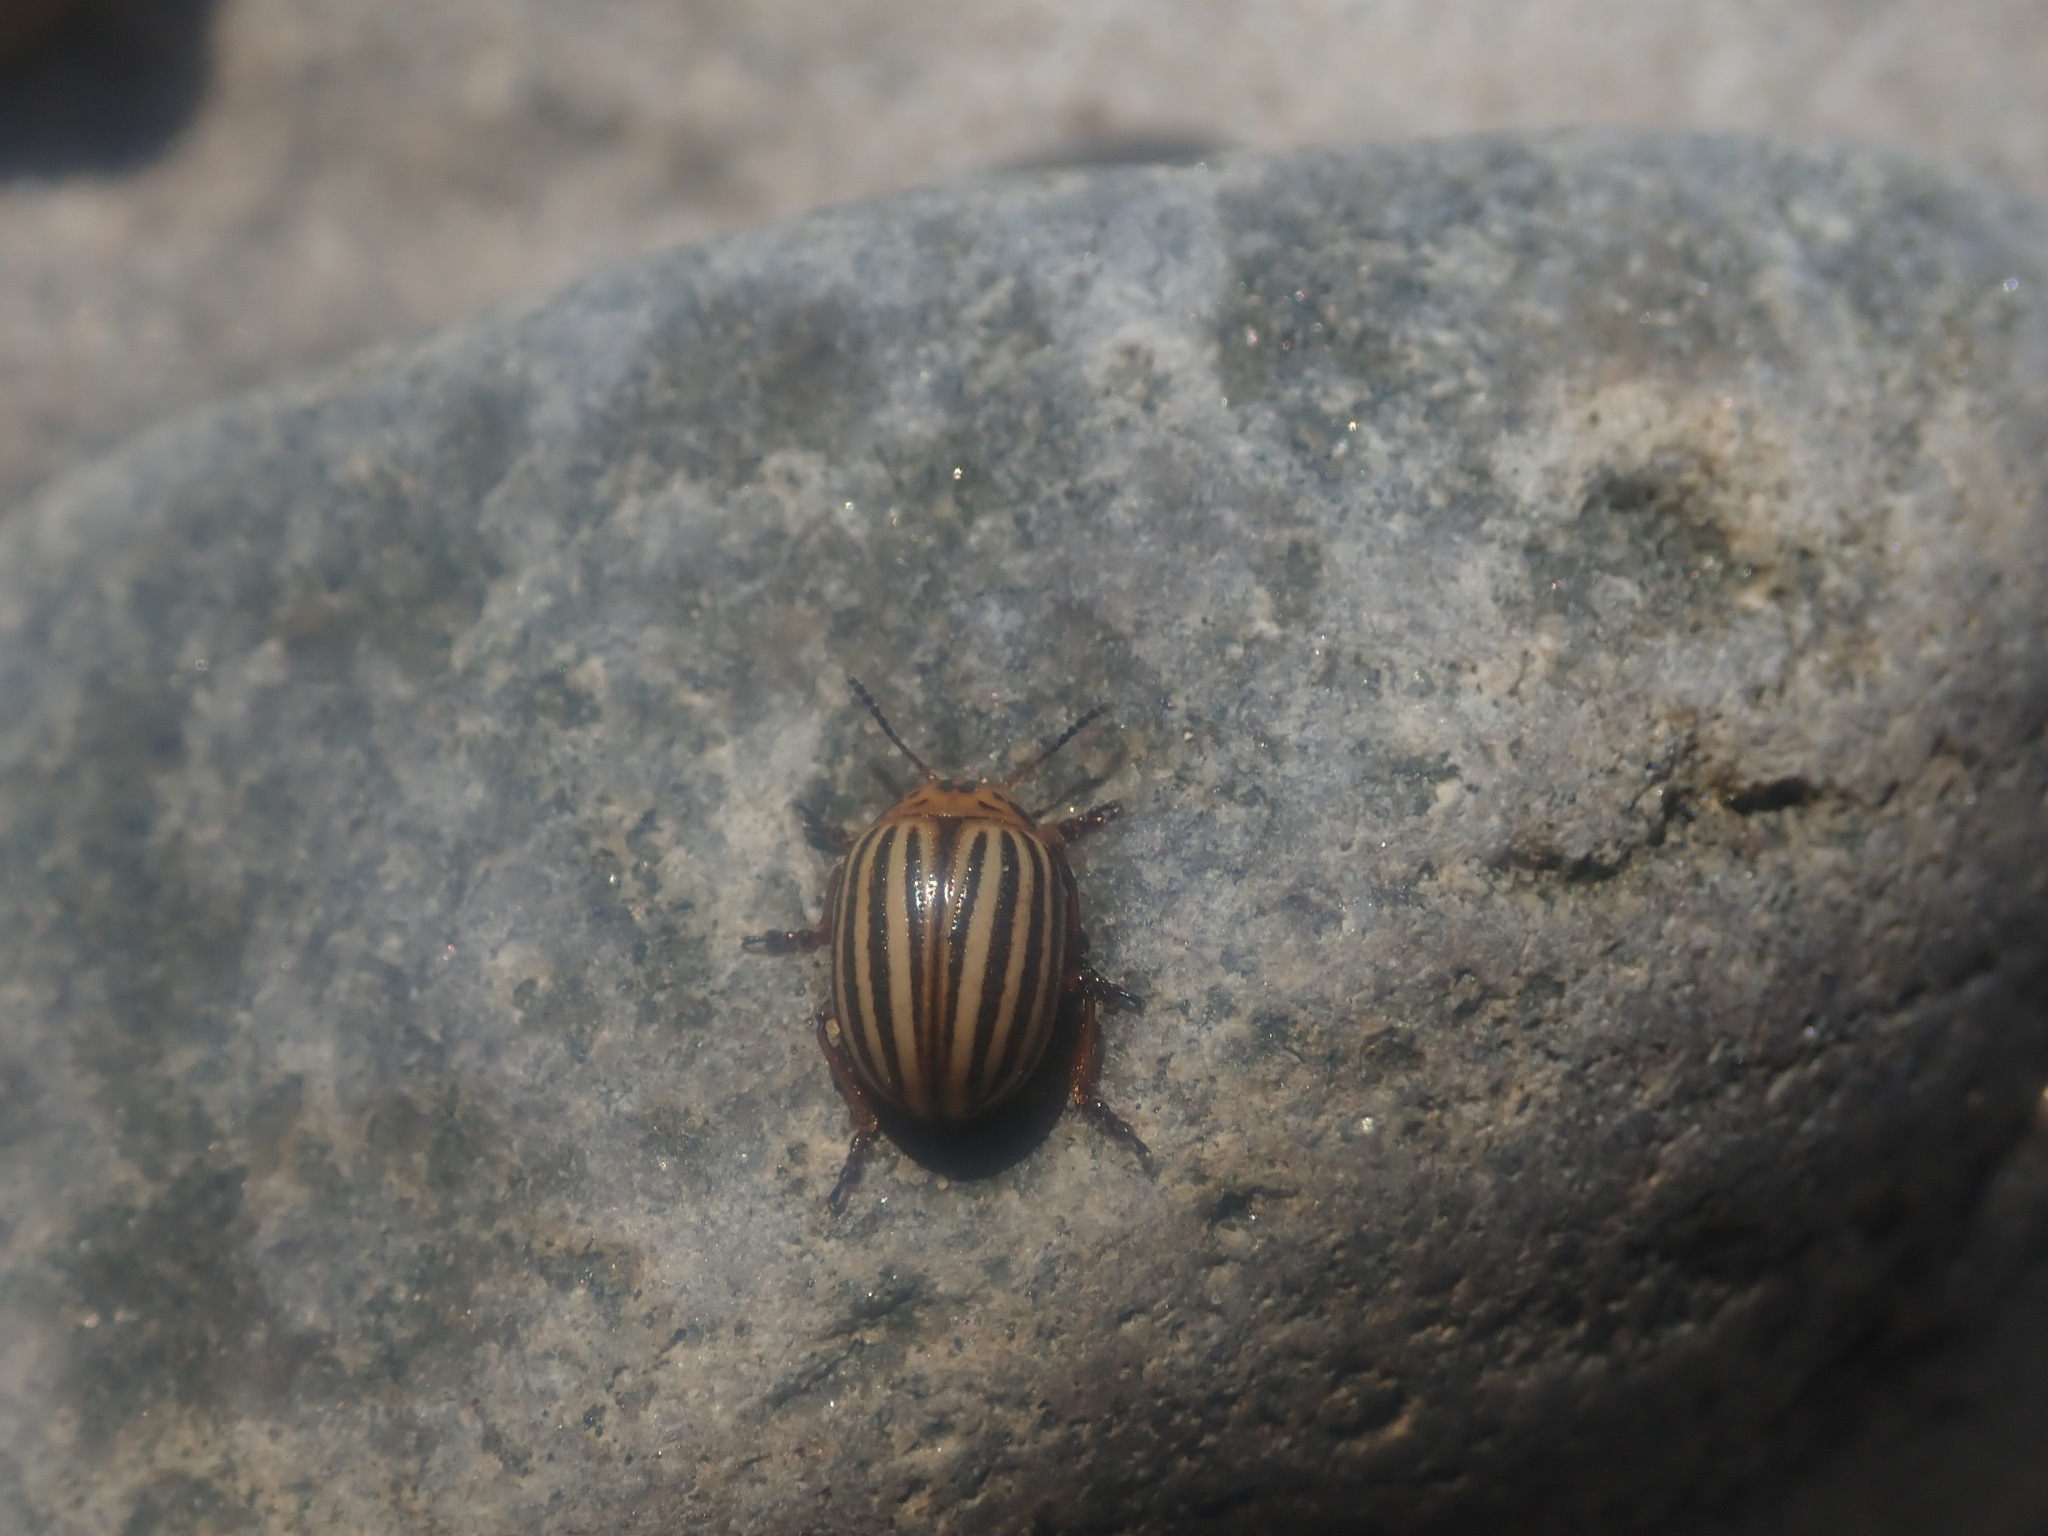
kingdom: Animalia
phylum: Arthropoda
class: Insecta
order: Coleoptera
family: Chrysomelidae
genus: Leptinotarsa
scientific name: Leptinotarsa decemlineata
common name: Colorado potato beetle
